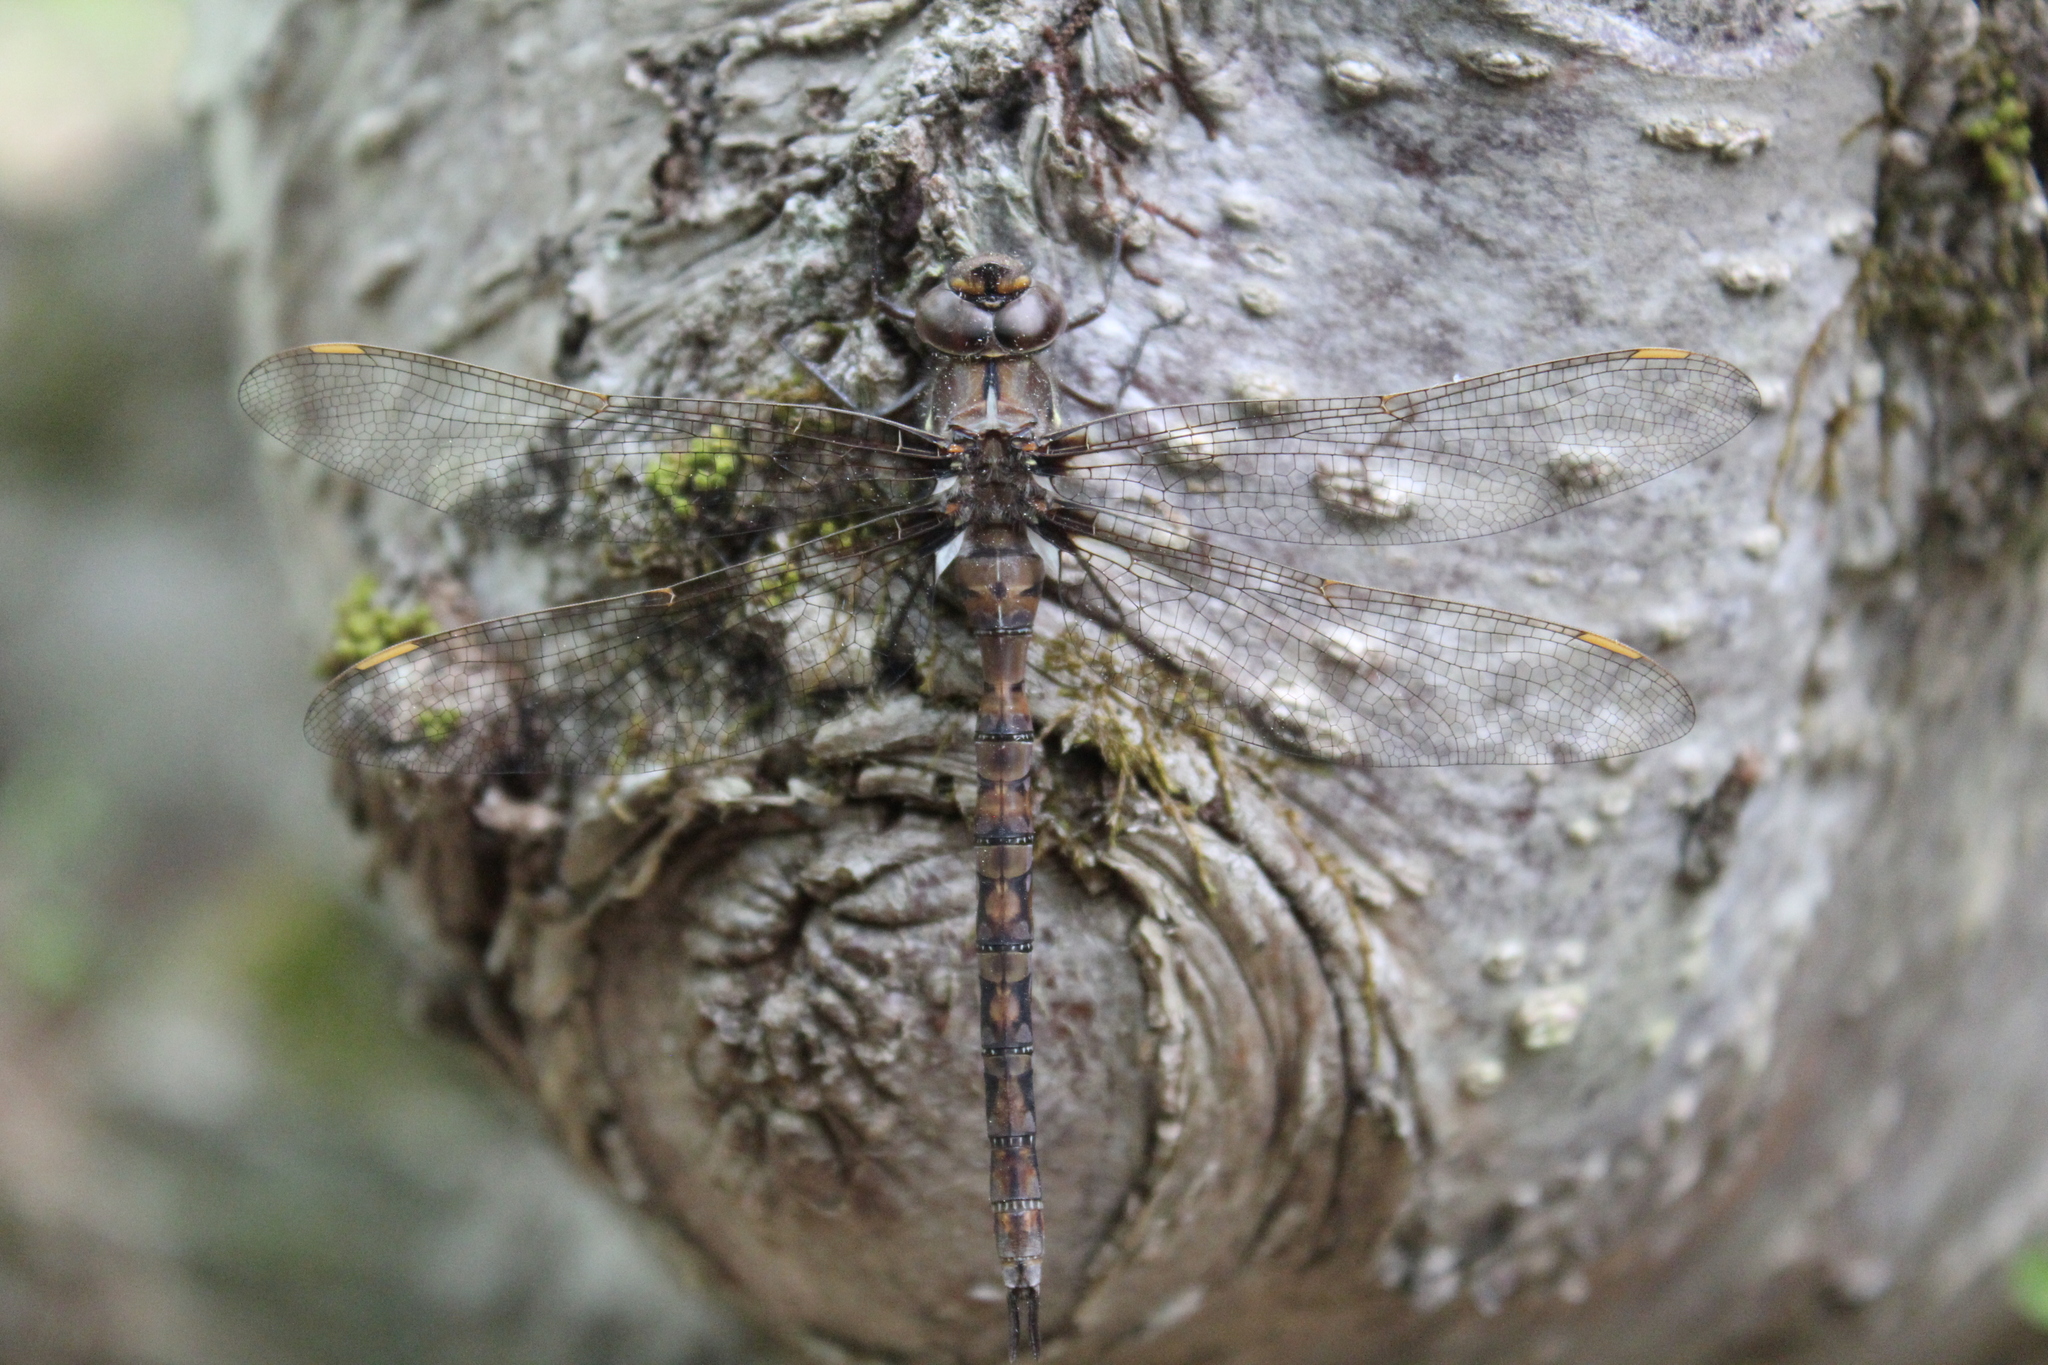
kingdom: Animalia
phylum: Arthropoda
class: Insecta
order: Odonata
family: Aeshnidae
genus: Basiaeschna
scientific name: Basiaeschna janata
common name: Springtime darner
